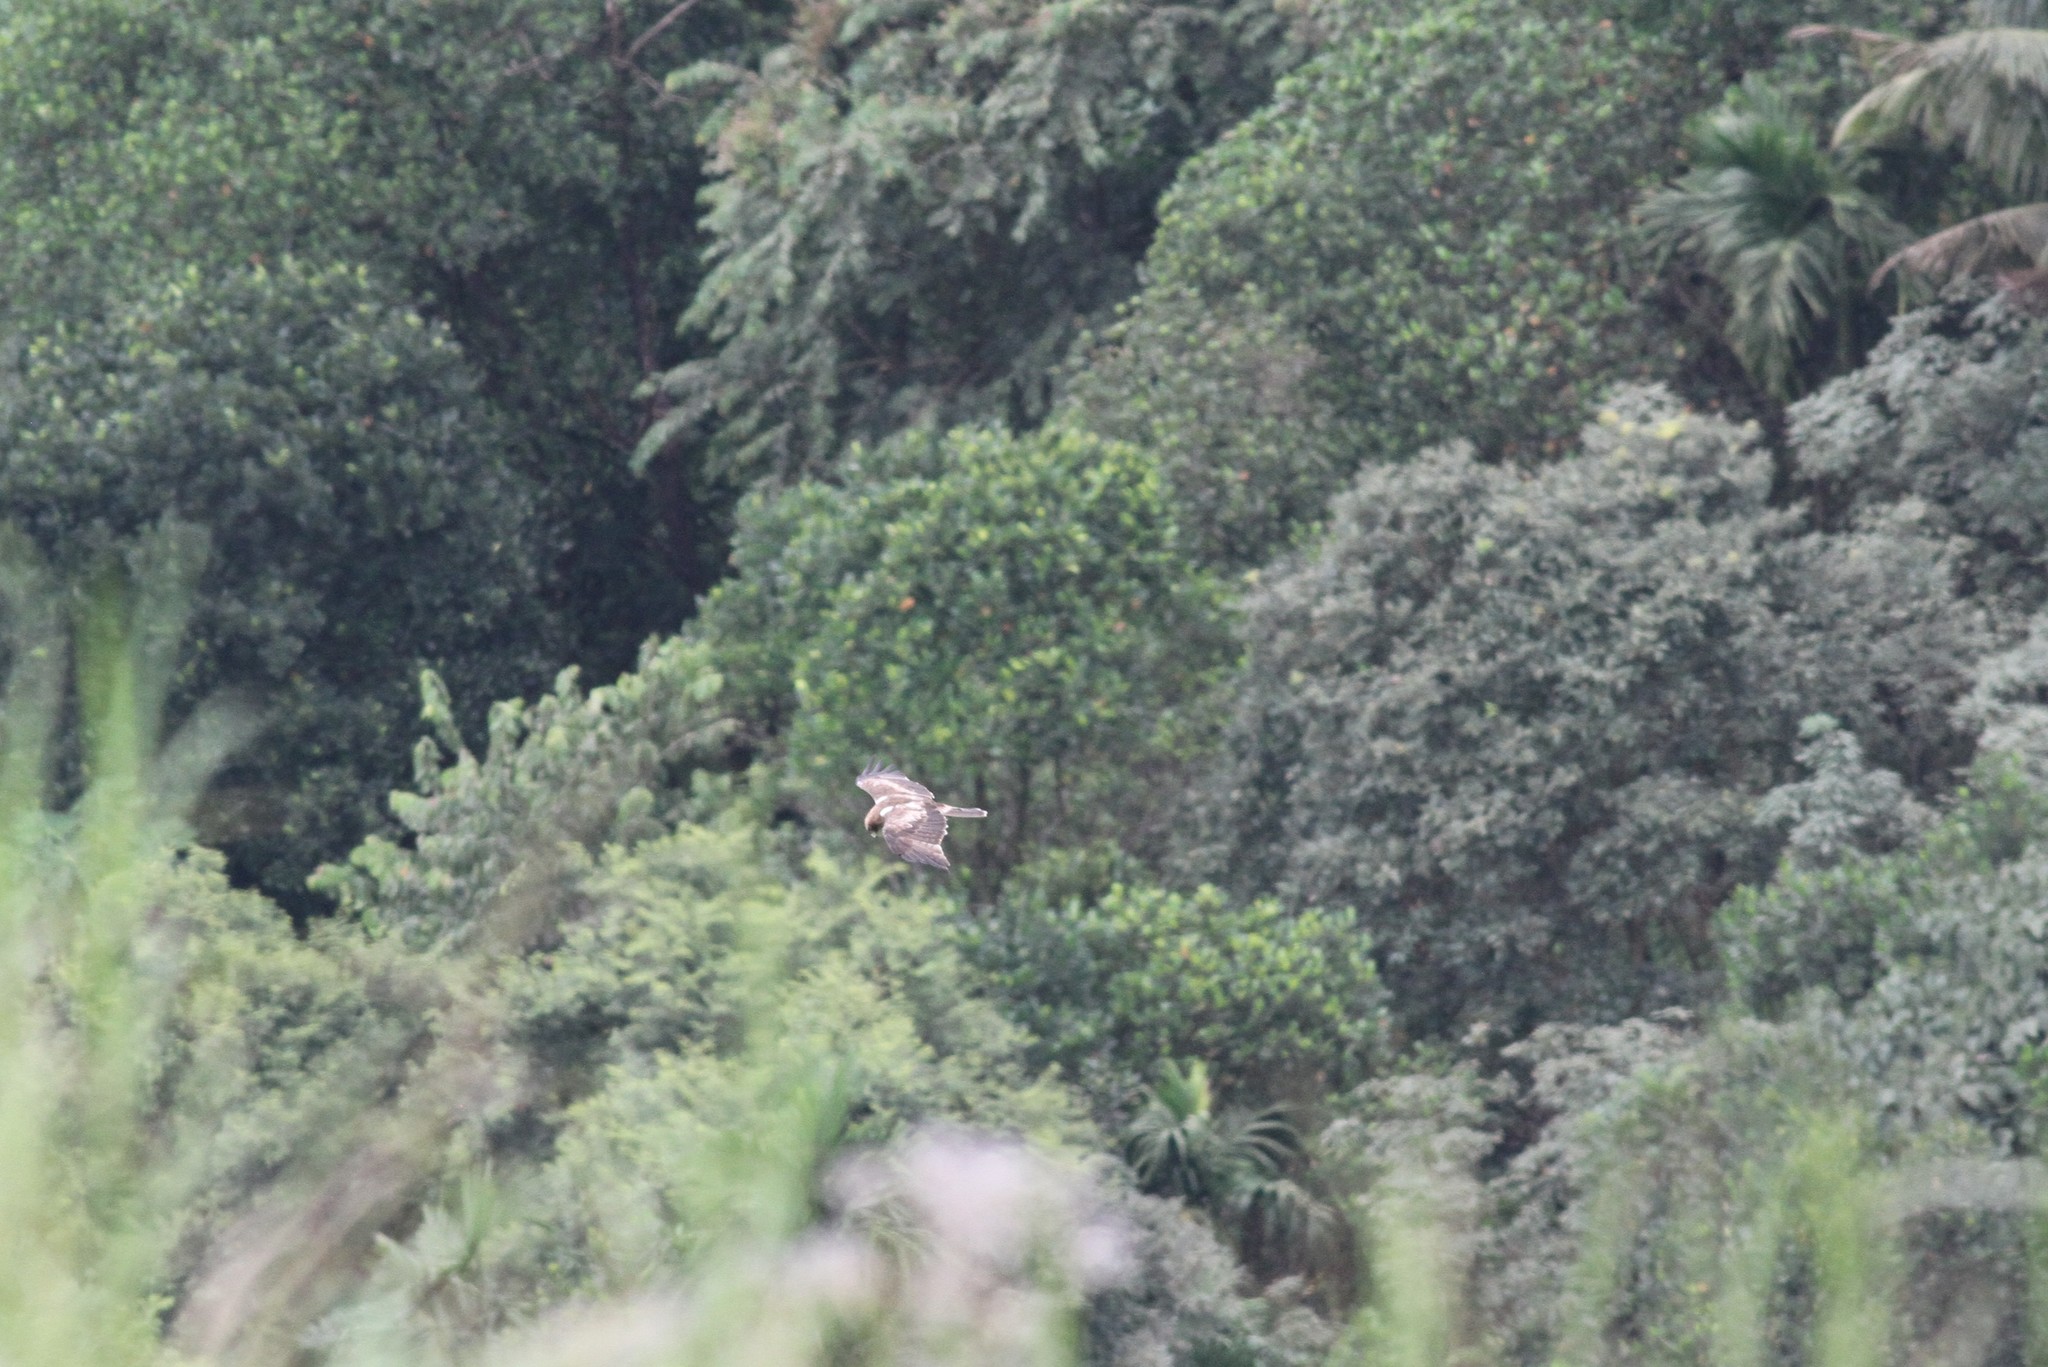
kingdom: Animalia
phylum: Chordata
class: Aves
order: Accipitriformes
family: Accipitridae
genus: Hieraaetus
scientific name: Hieraaetus pennatus
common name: Booted eagle
